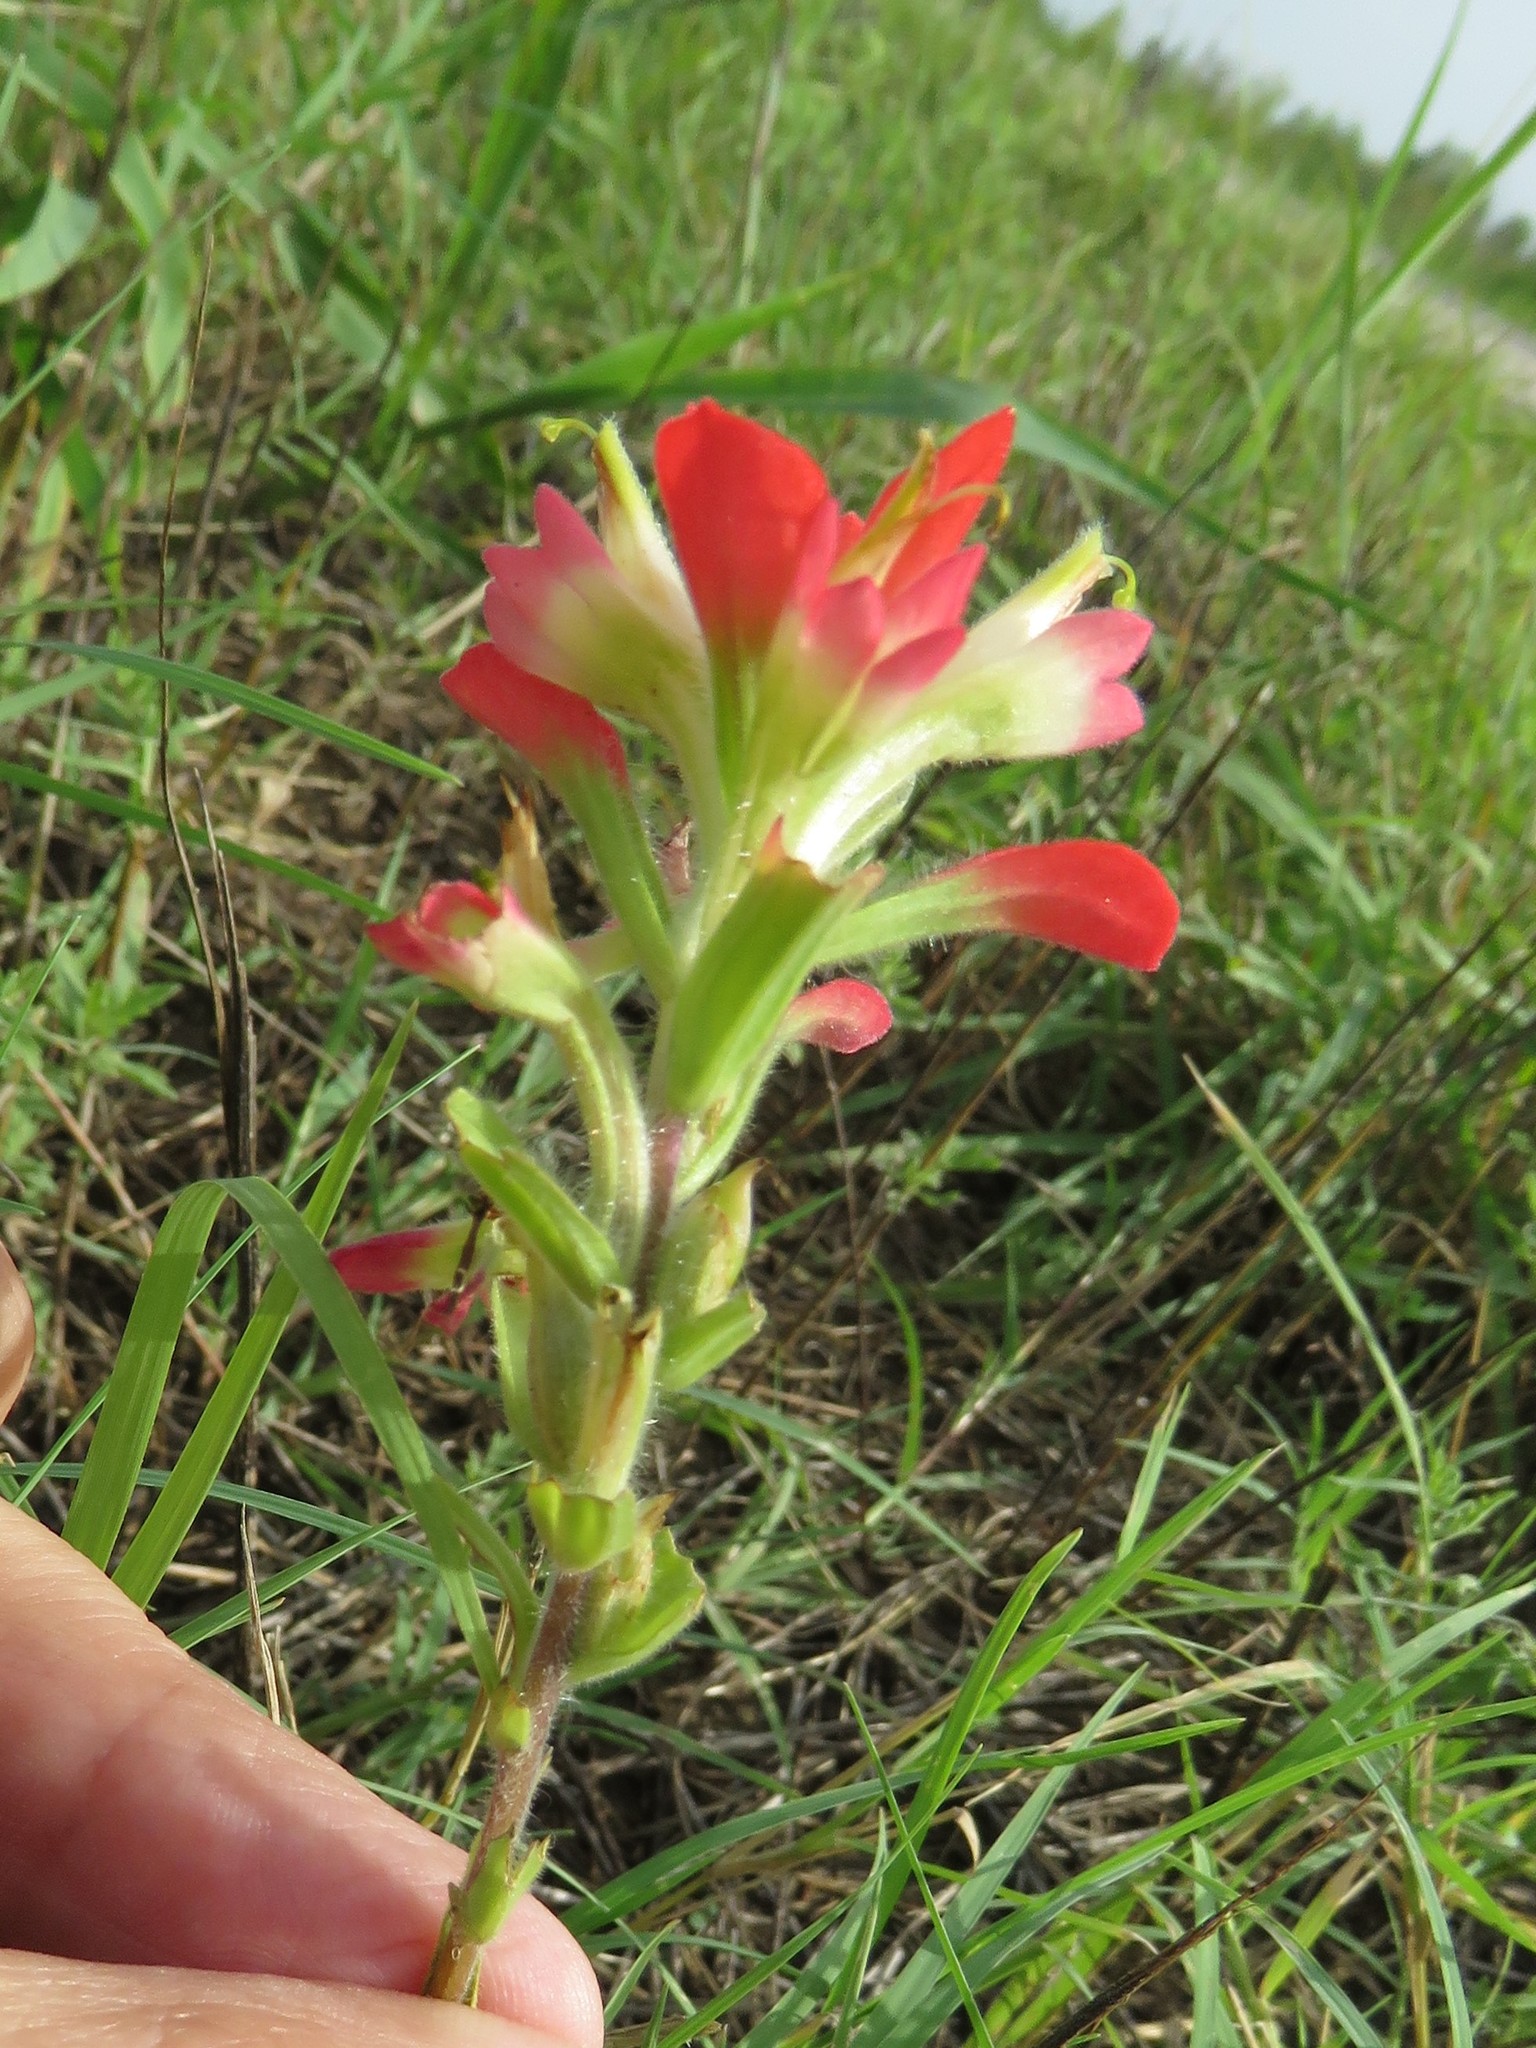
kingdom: Plantae
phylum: Tracheophyta
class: Magnoliopsida
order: Lamiales
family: Orobanchaceae
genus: Castilleja
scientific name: Castilleja indivisa
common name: Texas paintbrush
